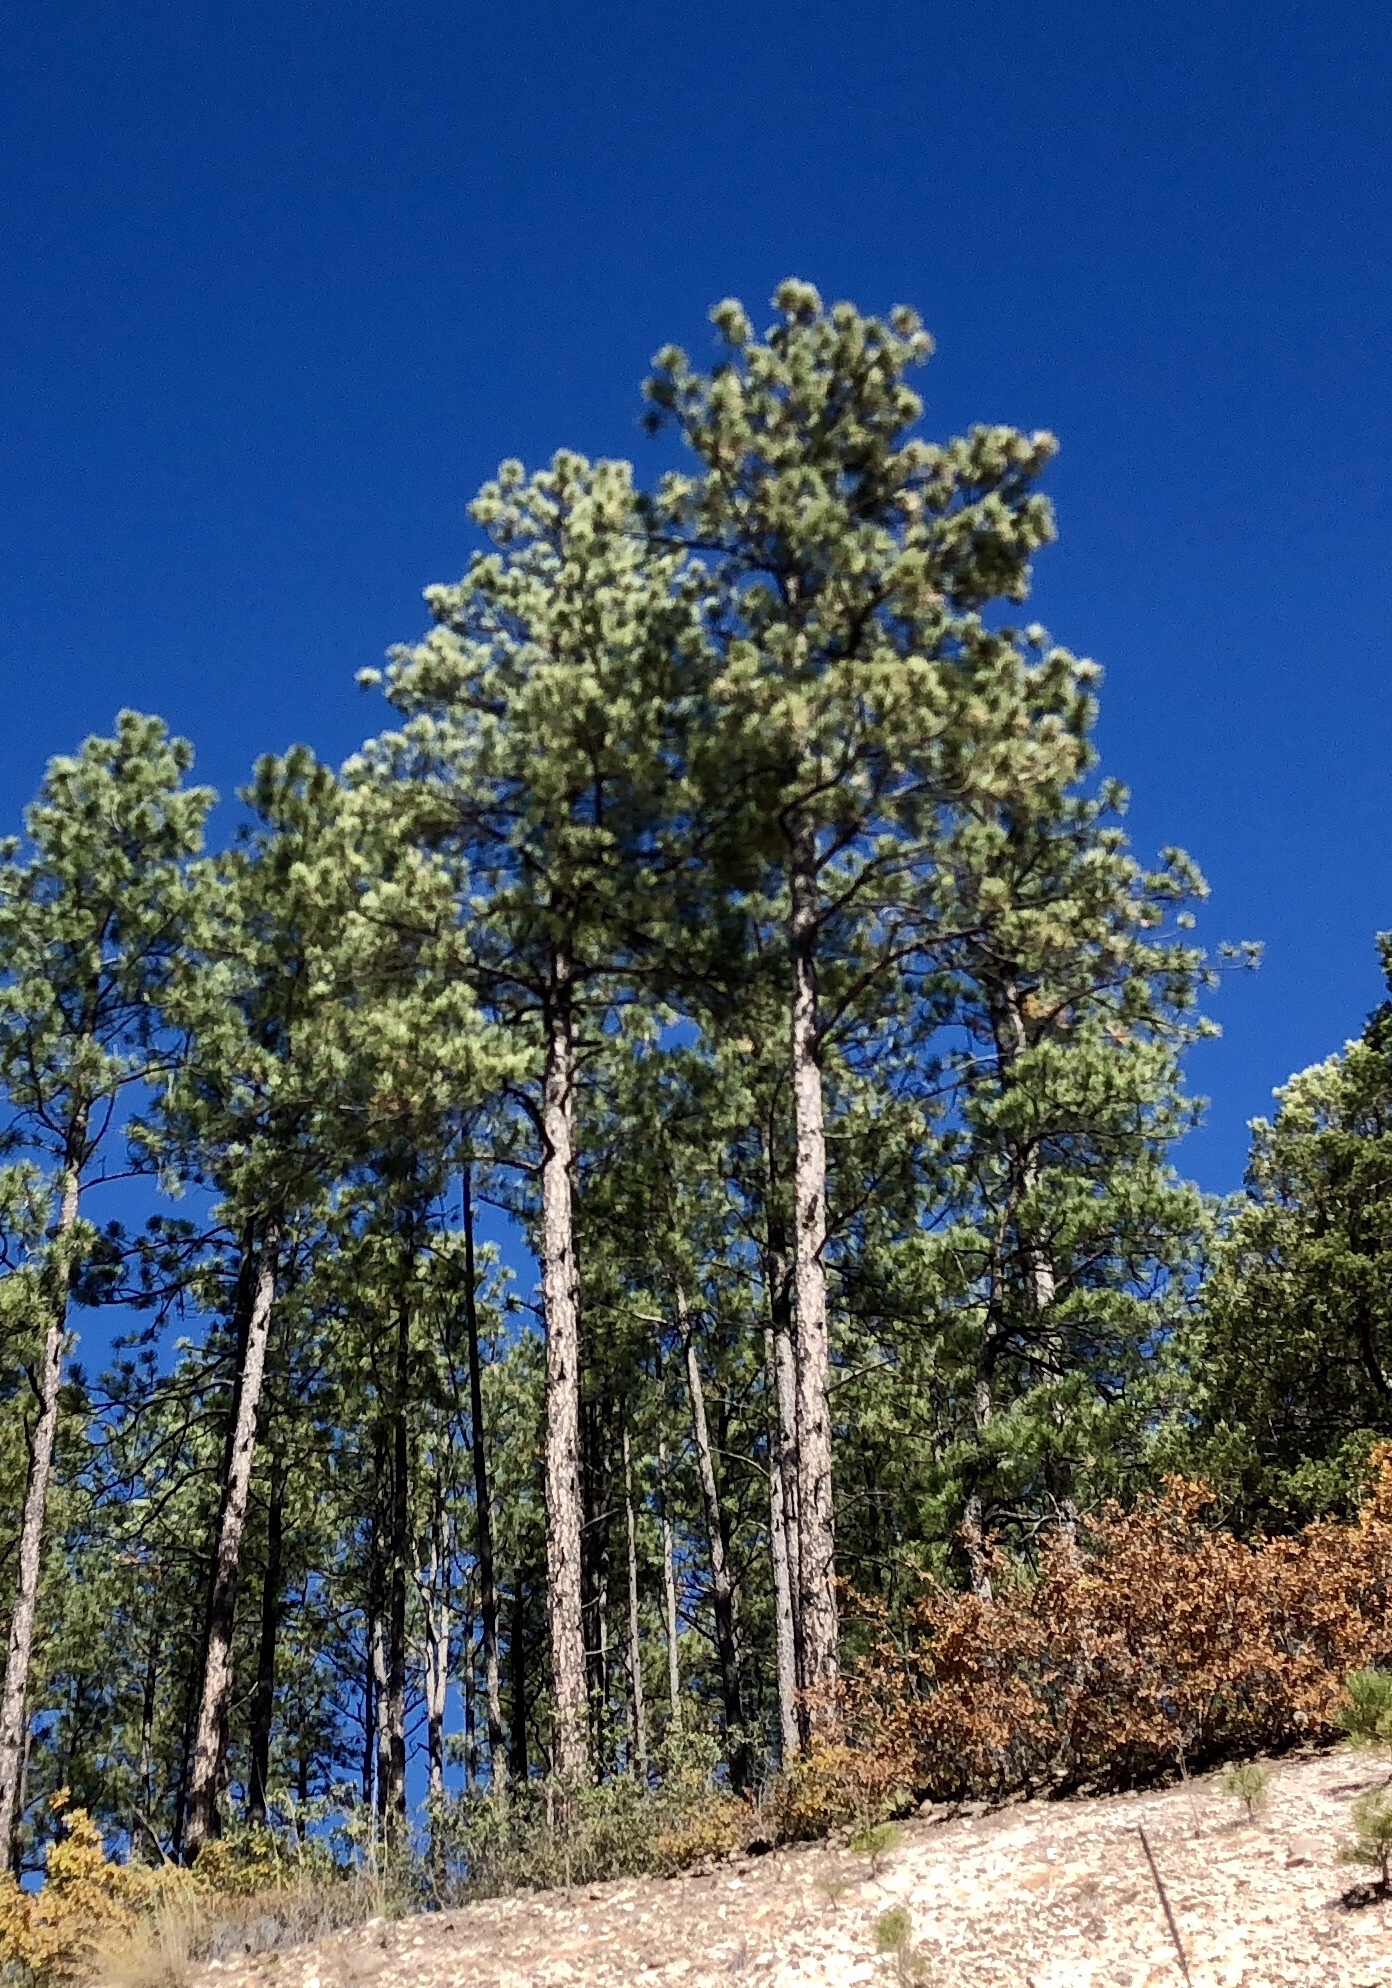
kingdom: Plantae
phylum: Tracheophyta
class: Pinopsida
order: Pinales
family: Pinaceae
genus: Pinus
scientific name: Pinus ponderosa
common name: Western yellow-pine
